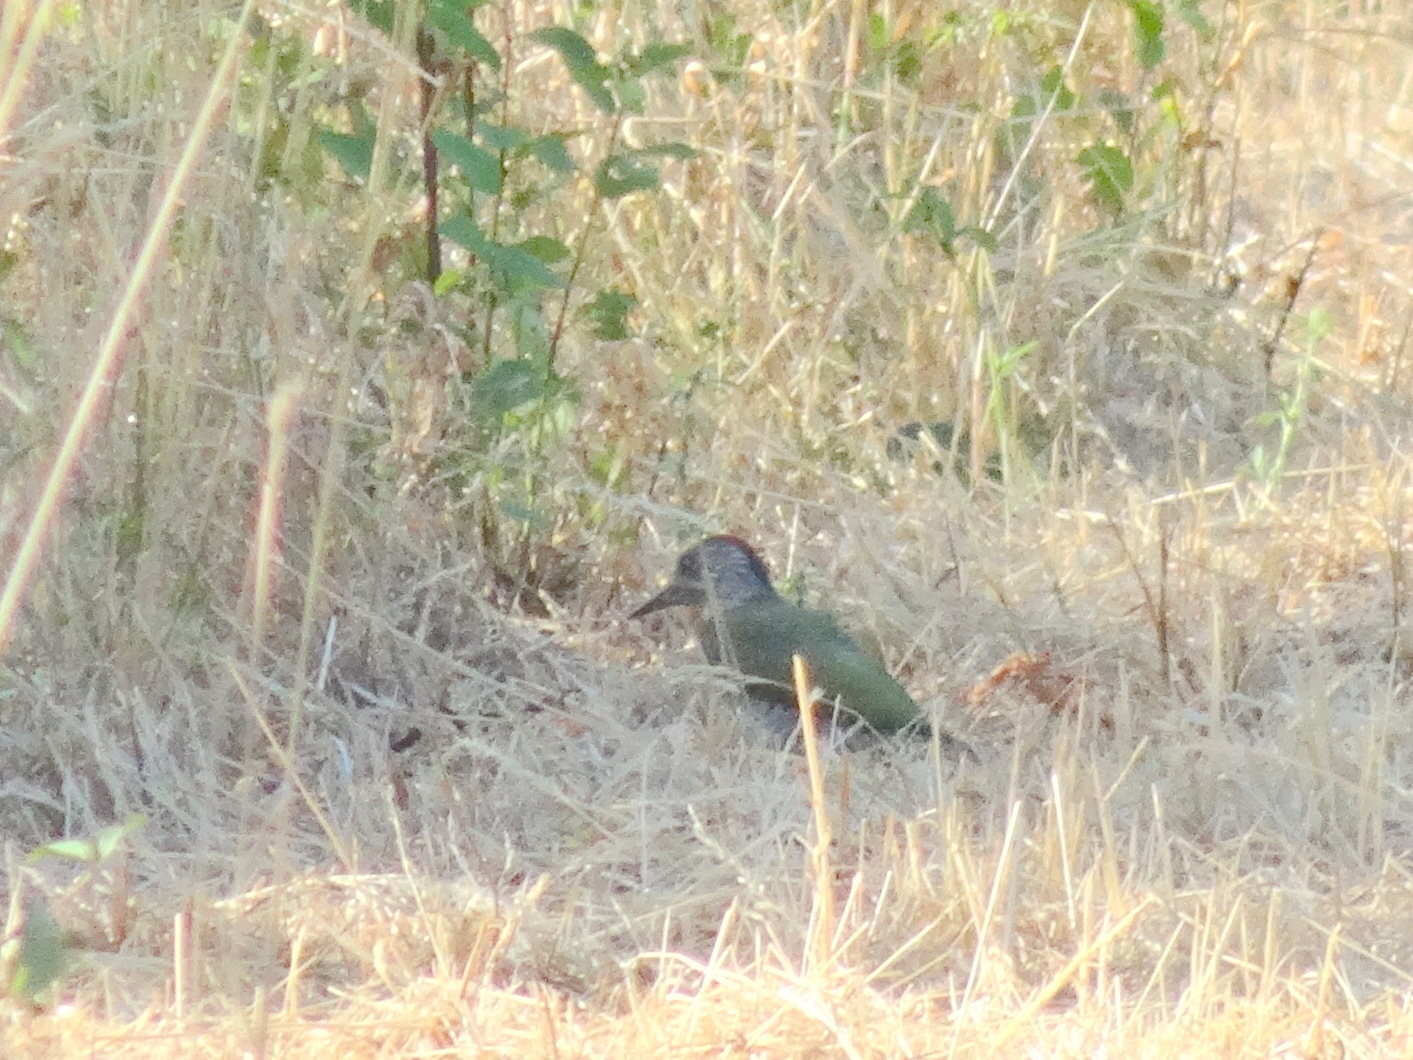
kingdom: Animalia
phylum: Chordata
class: Aves
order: Piciformes
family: Picidae
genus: Picus
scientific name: Picus viridis
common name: European green woodpecker
